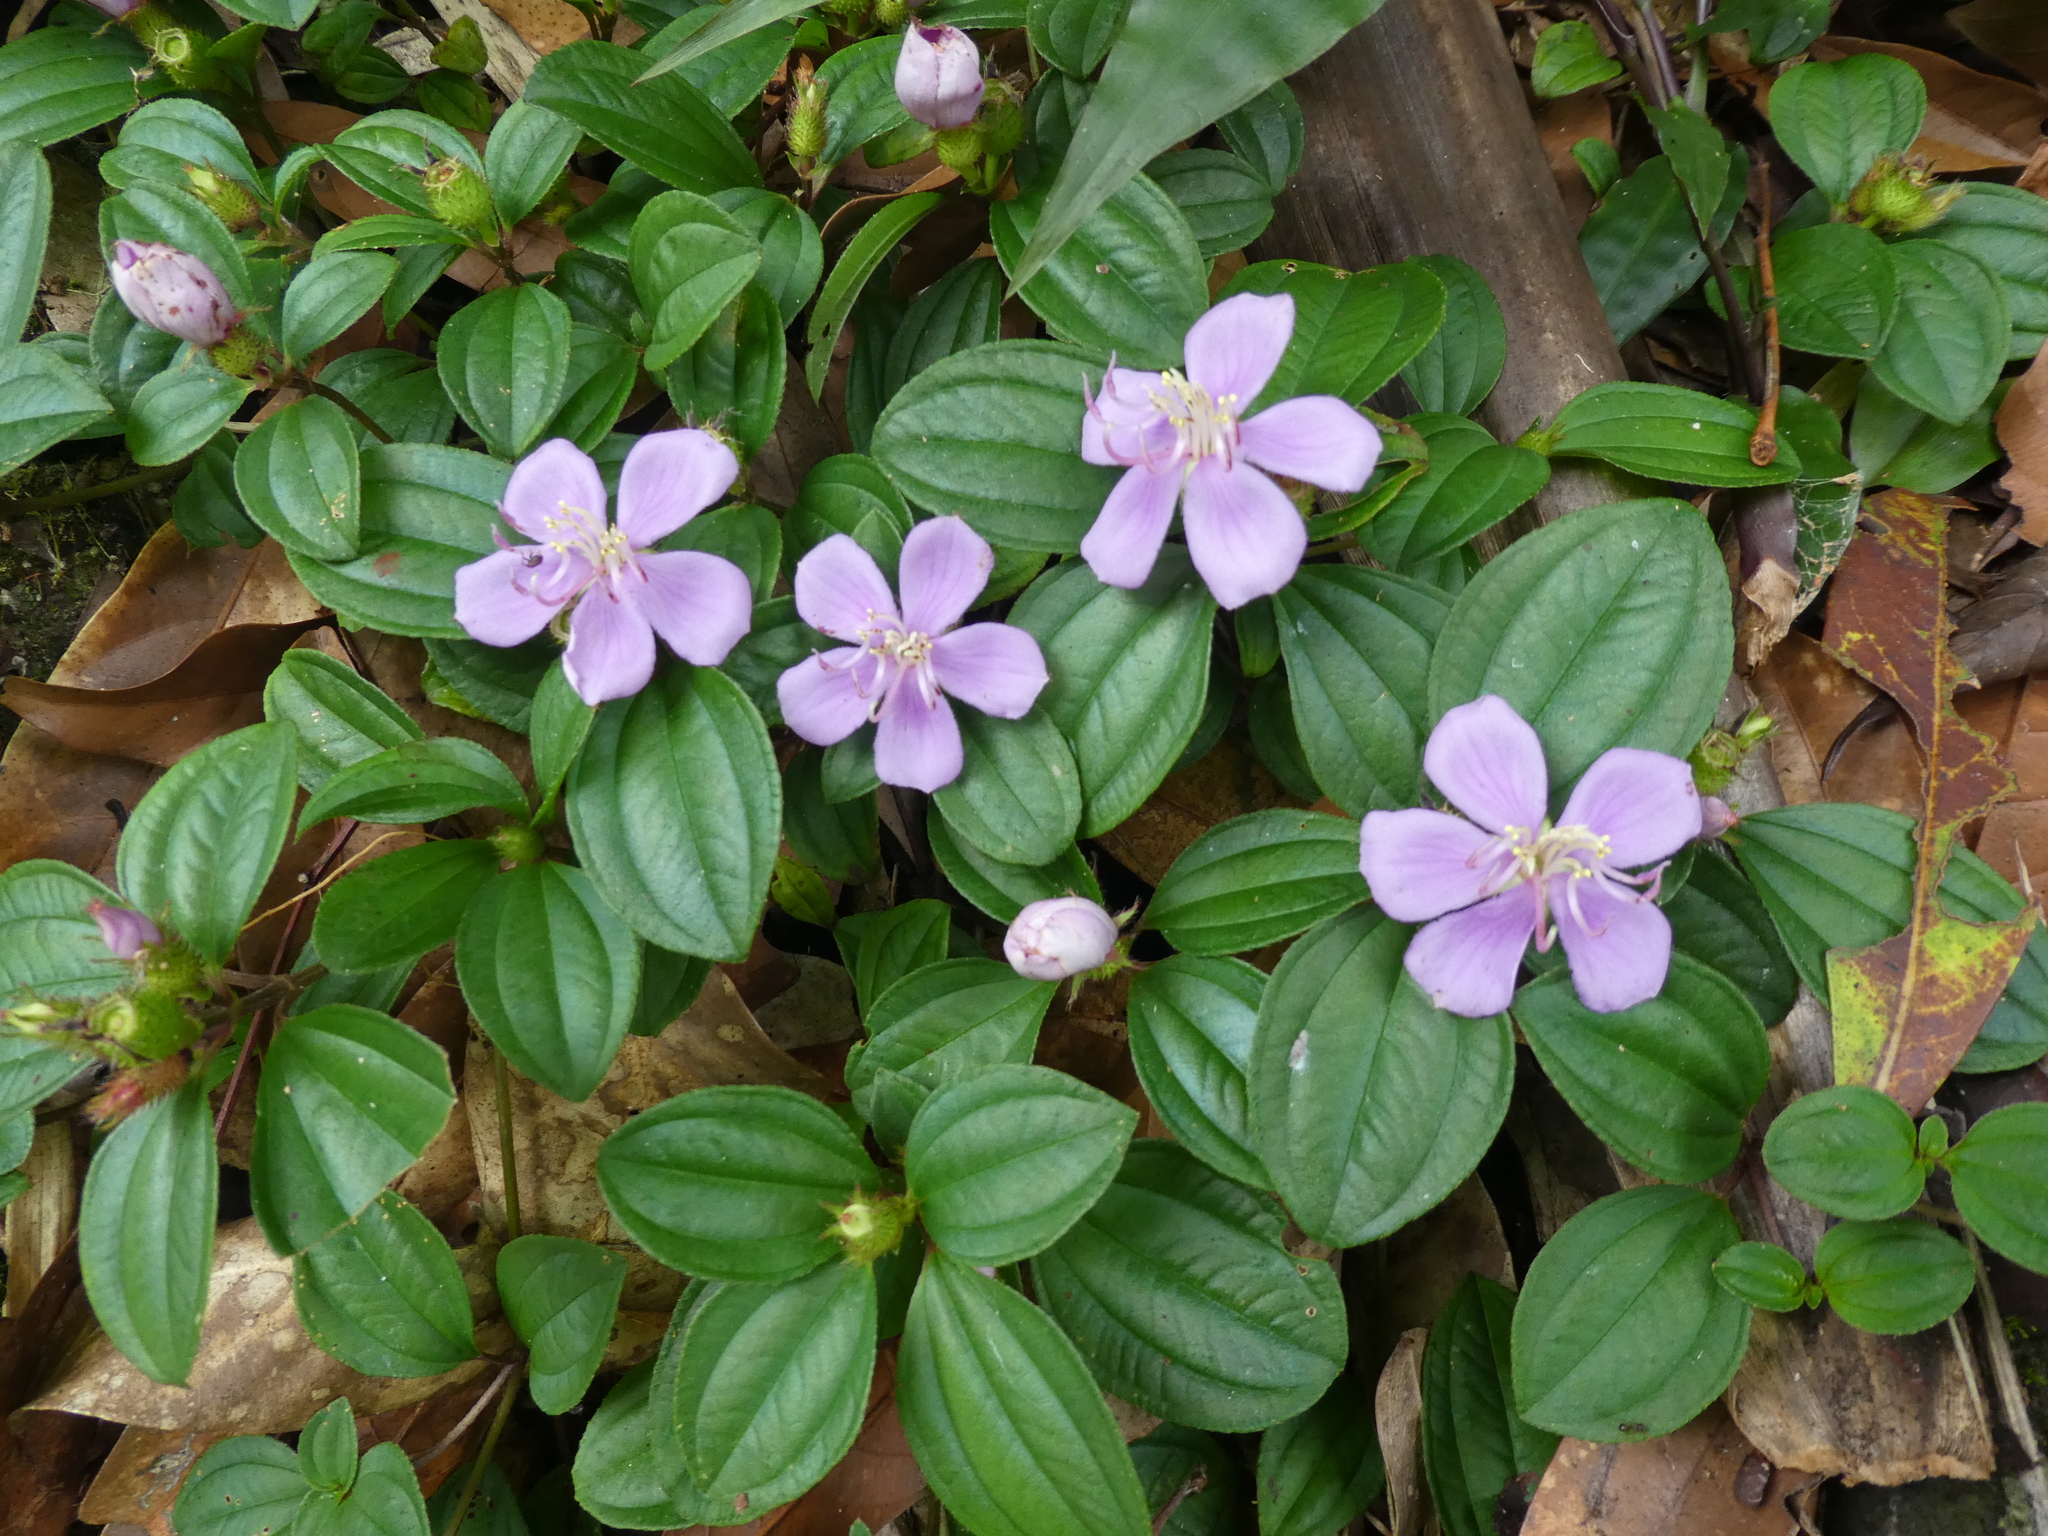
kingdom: Plantae
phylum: Tracheophyta
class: Magnoliopsida
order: Myrtales
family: Melastomataceae
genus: Melastoma
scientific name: Melastoma dodecandrum
